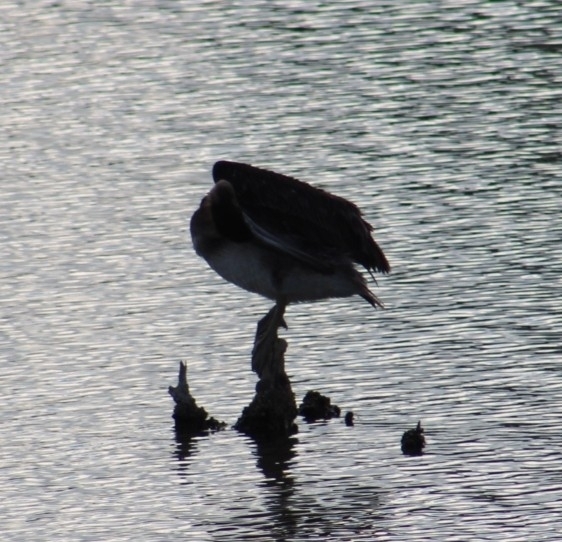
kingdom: Animalia
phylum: Chordata
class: Aves
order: Pelecaniformes
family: Pelecanidae
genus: Pelecanus
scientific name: Pelecanus occidentalis
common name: Brown pelican
